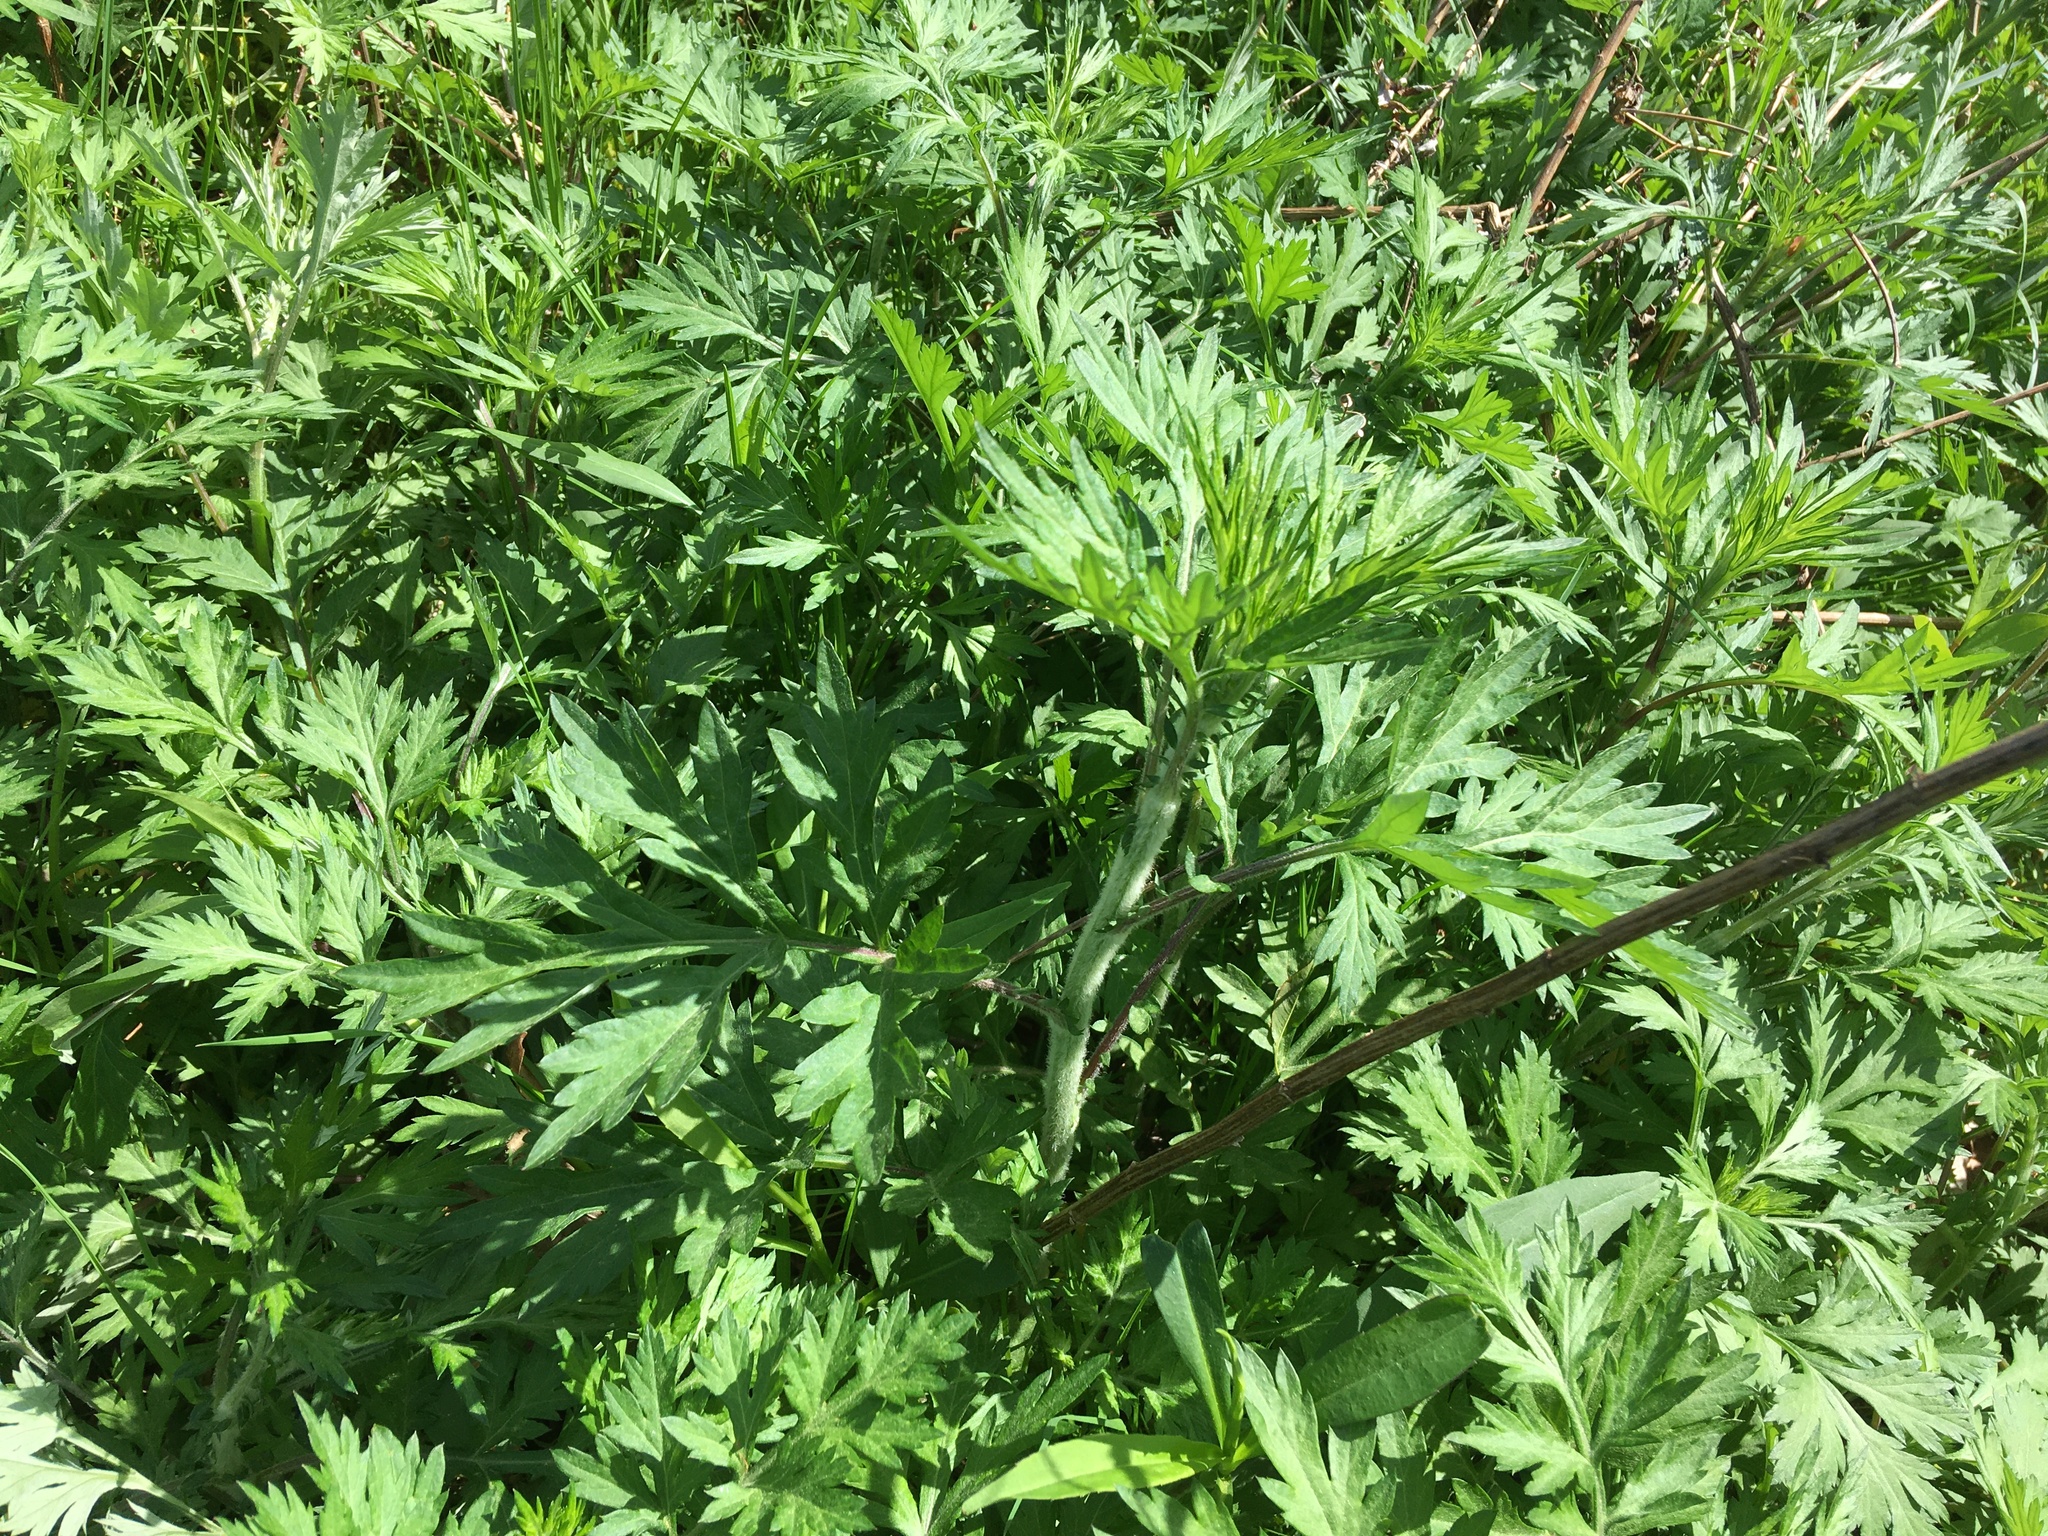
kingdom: Plantae
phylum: Tracheophyta
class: Magnoliopsida
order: Asterales
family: Asteraceae
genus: Artemisia
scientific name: Artemisia vulgaris
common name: Mugwort
